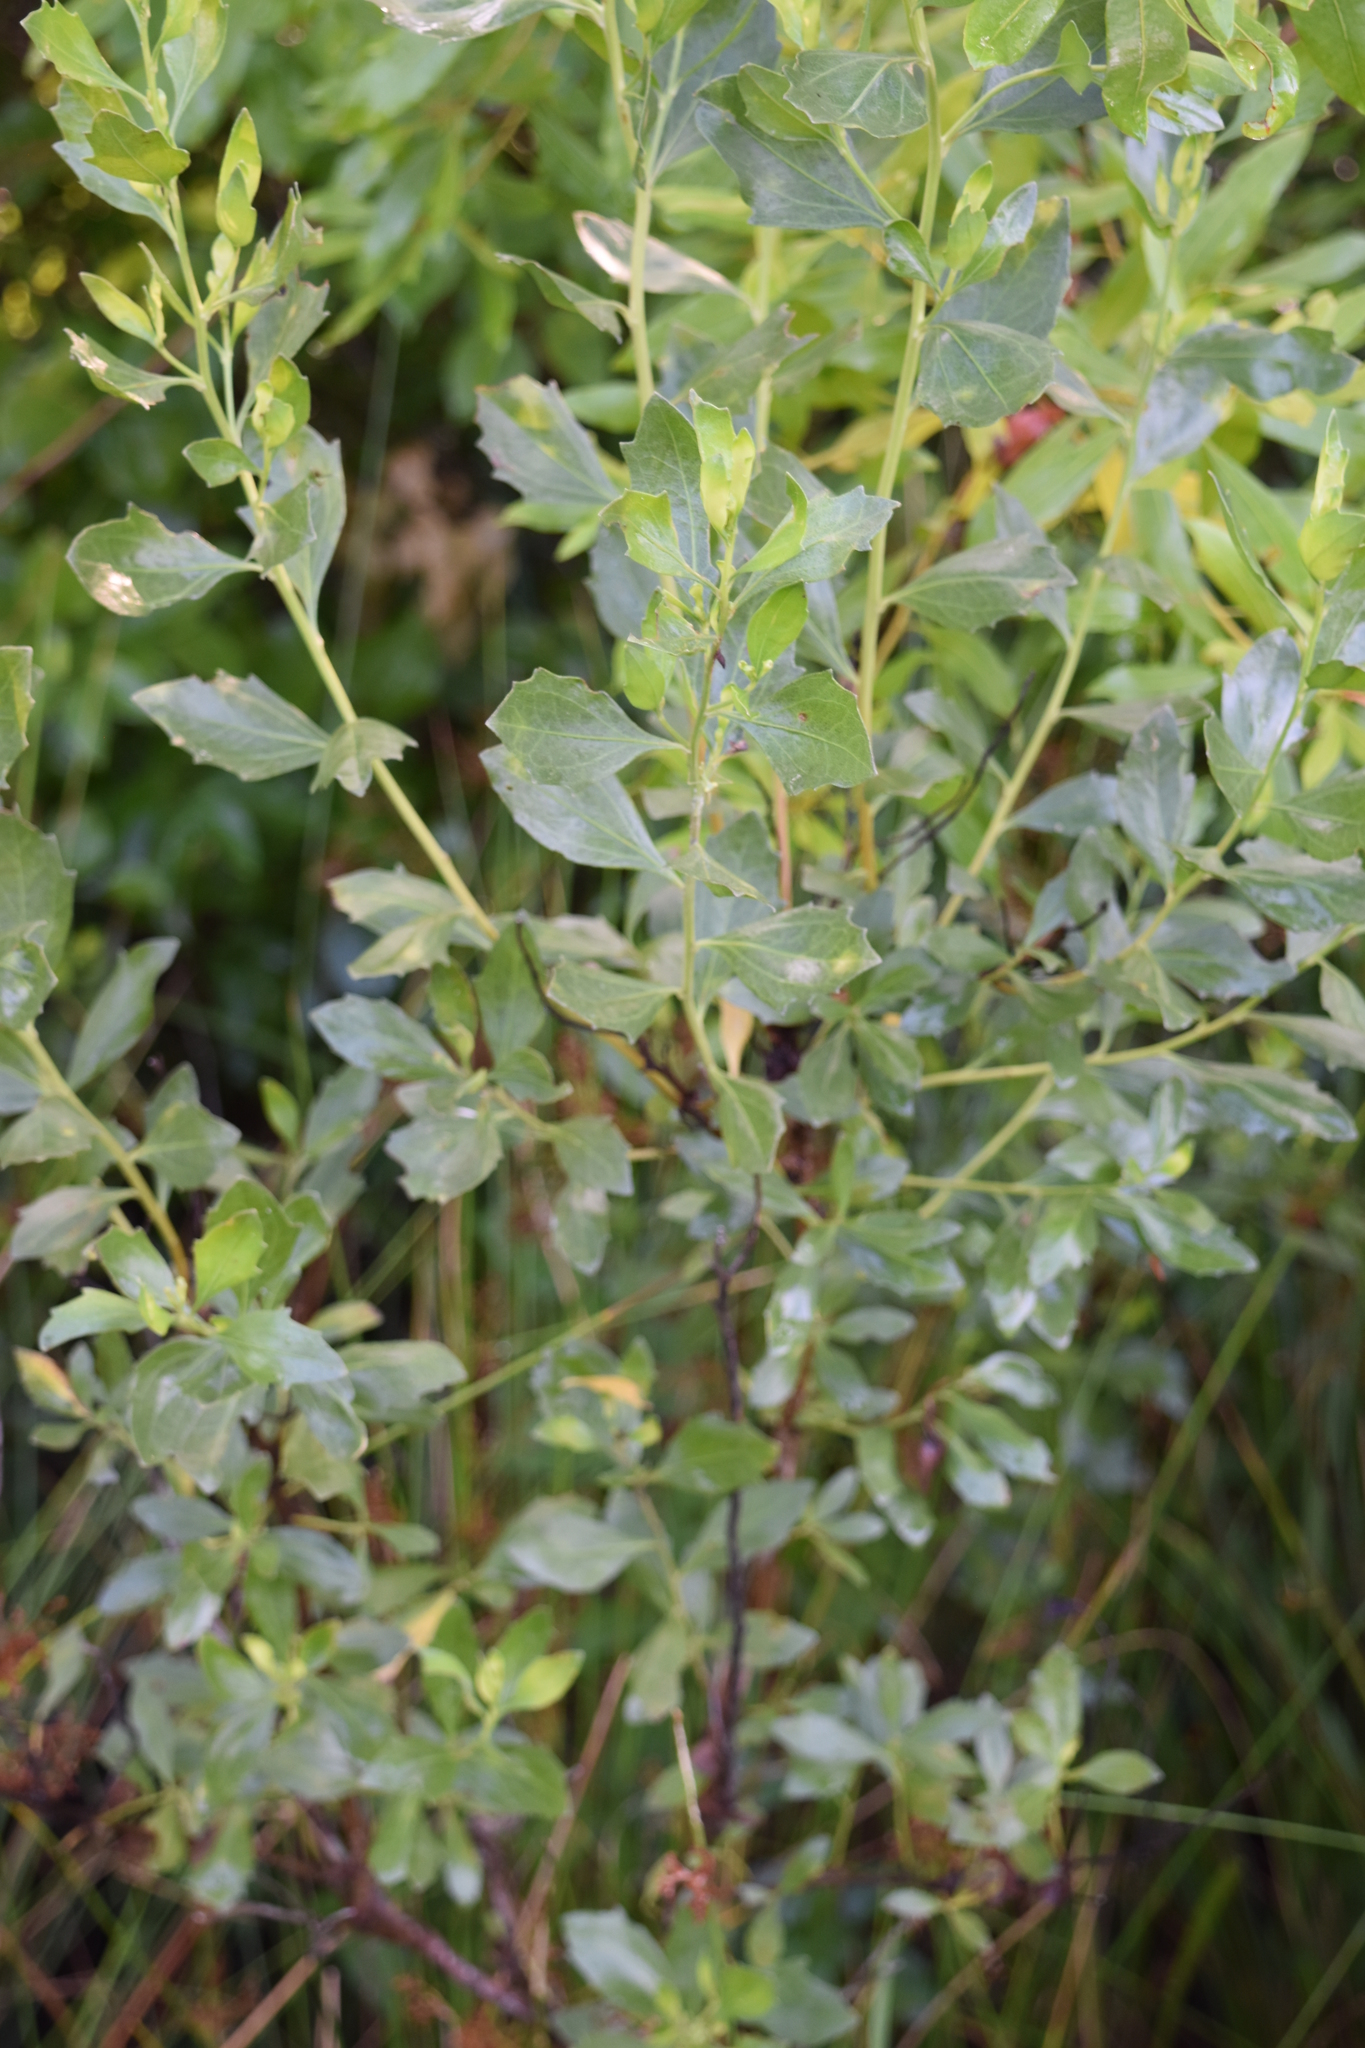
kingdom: Plantae
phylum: Tracheophyta
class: Magnoliopsida
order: Asterales
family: Asteraceae
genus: Baccharis
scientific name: Baccharis halimifolia
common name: Eastern baccharis
